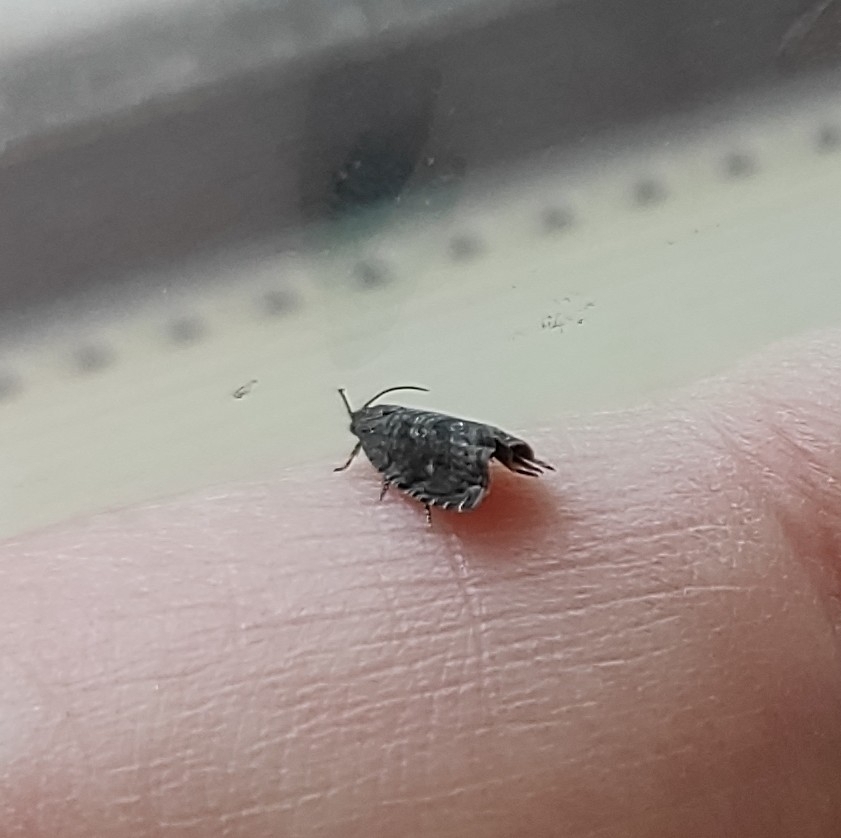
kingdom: Animalia
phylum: Arthropoda
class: Insecta
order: Lepidoptera
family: Tortricidae
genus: Cydia
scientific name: Cydia fagiglandana
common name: Large beech piercer
